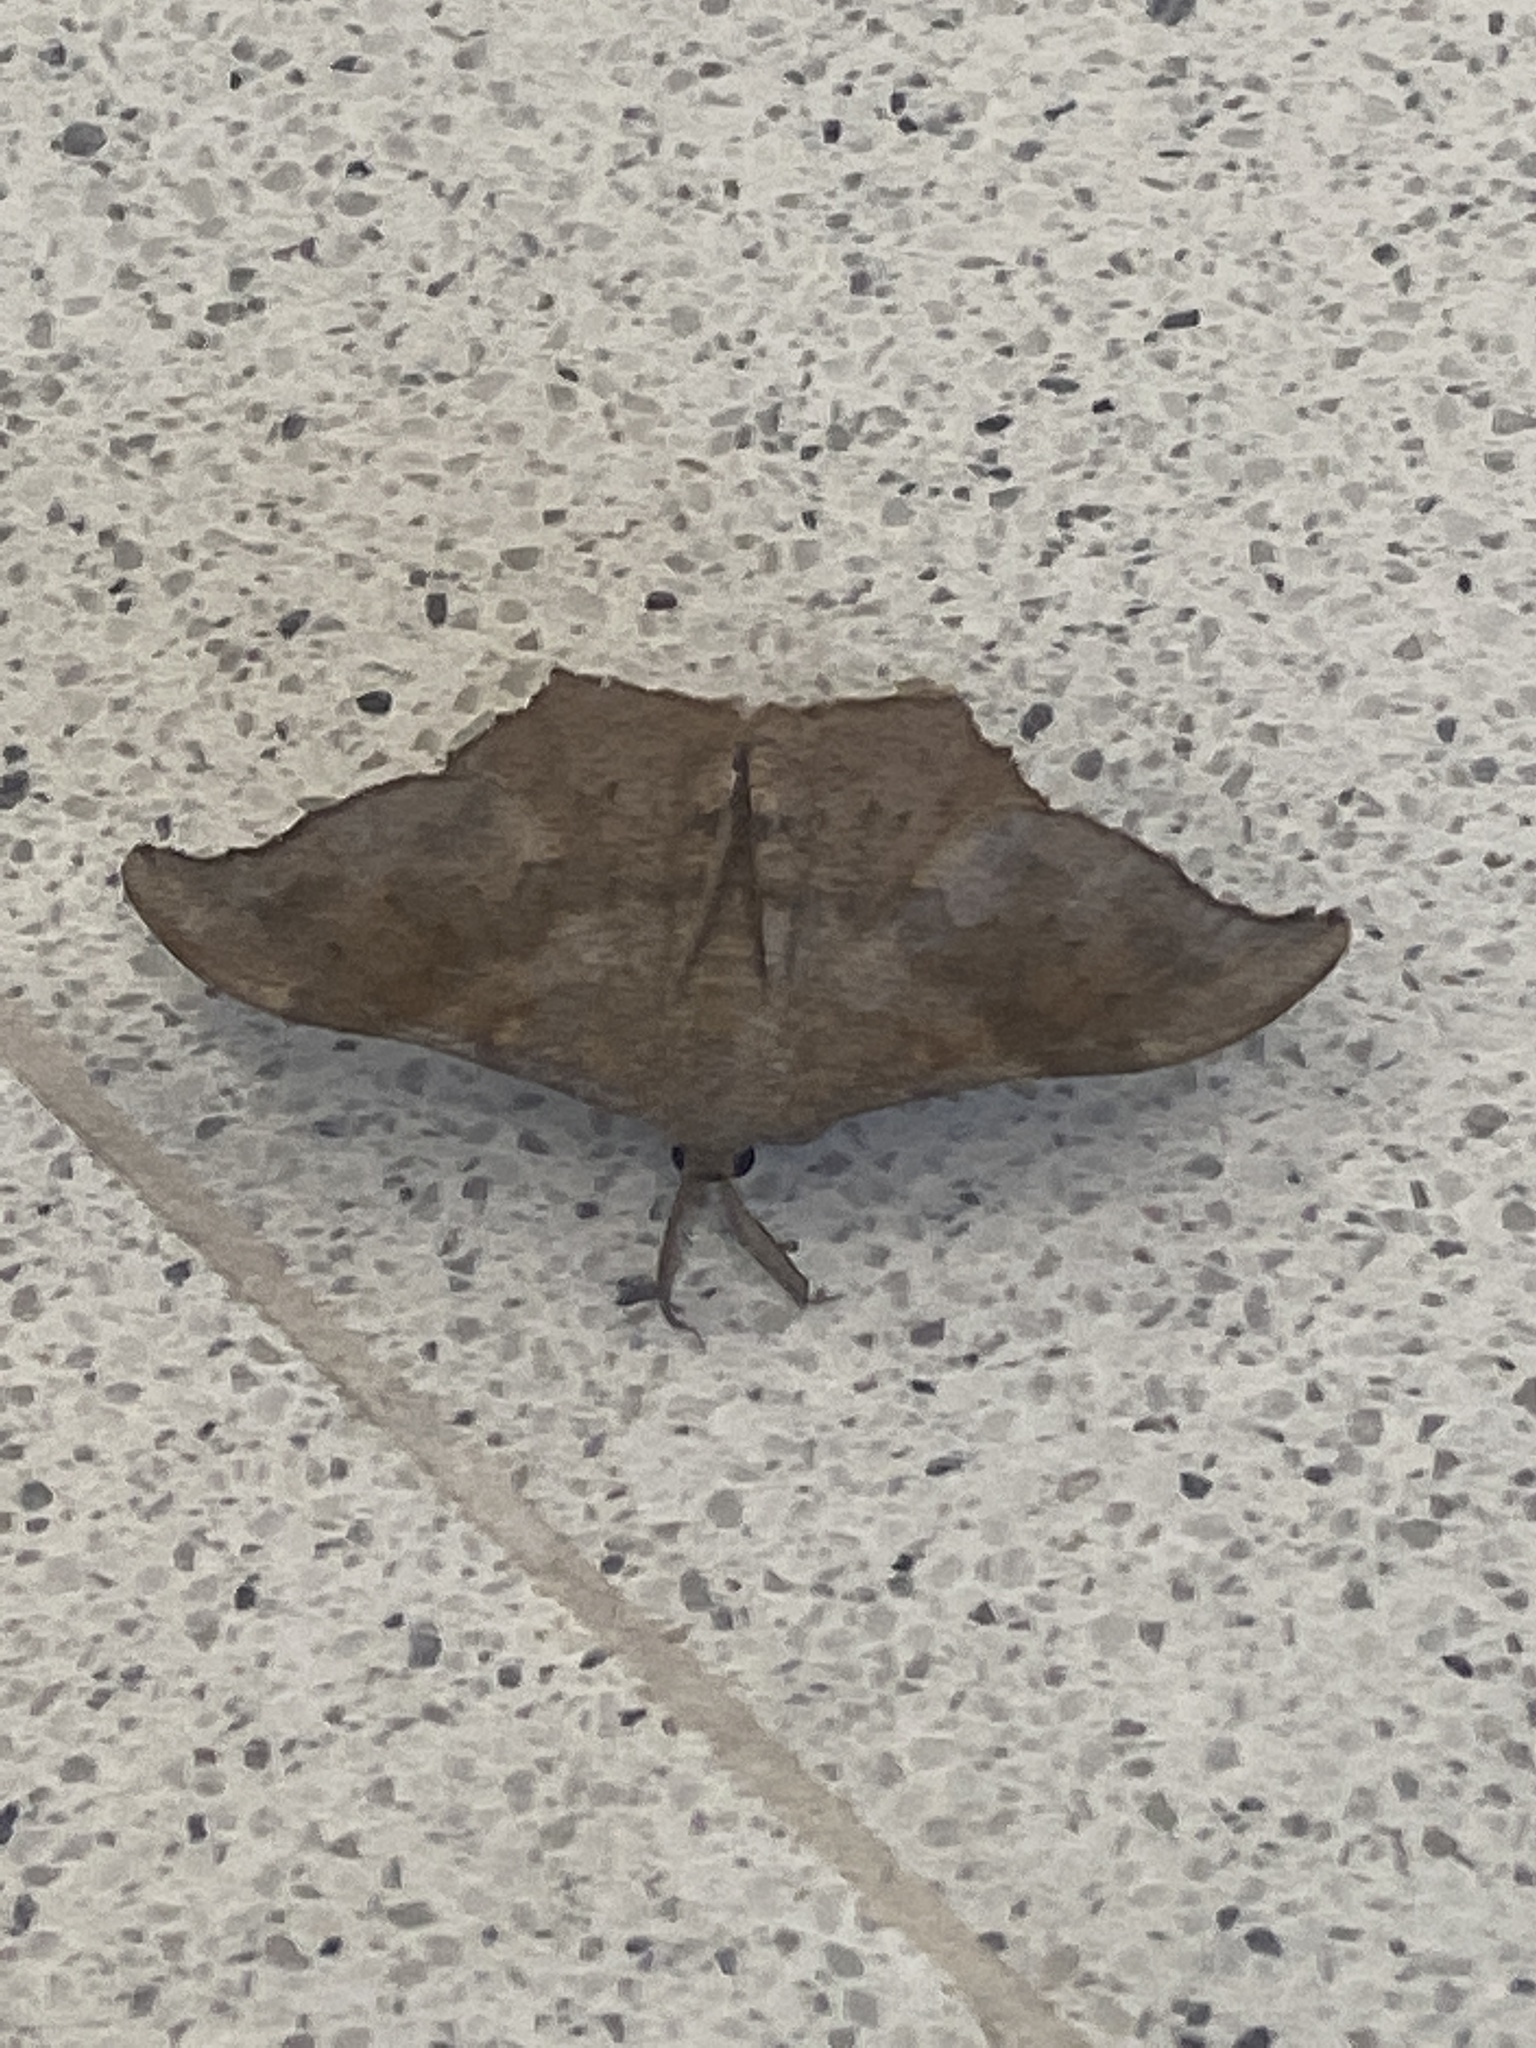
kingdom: Animalia
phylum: Arthropoda
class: Insecta
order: Lepidoptera
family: Geometridae
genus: Hyposidra
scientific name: Hyposidra talaca
